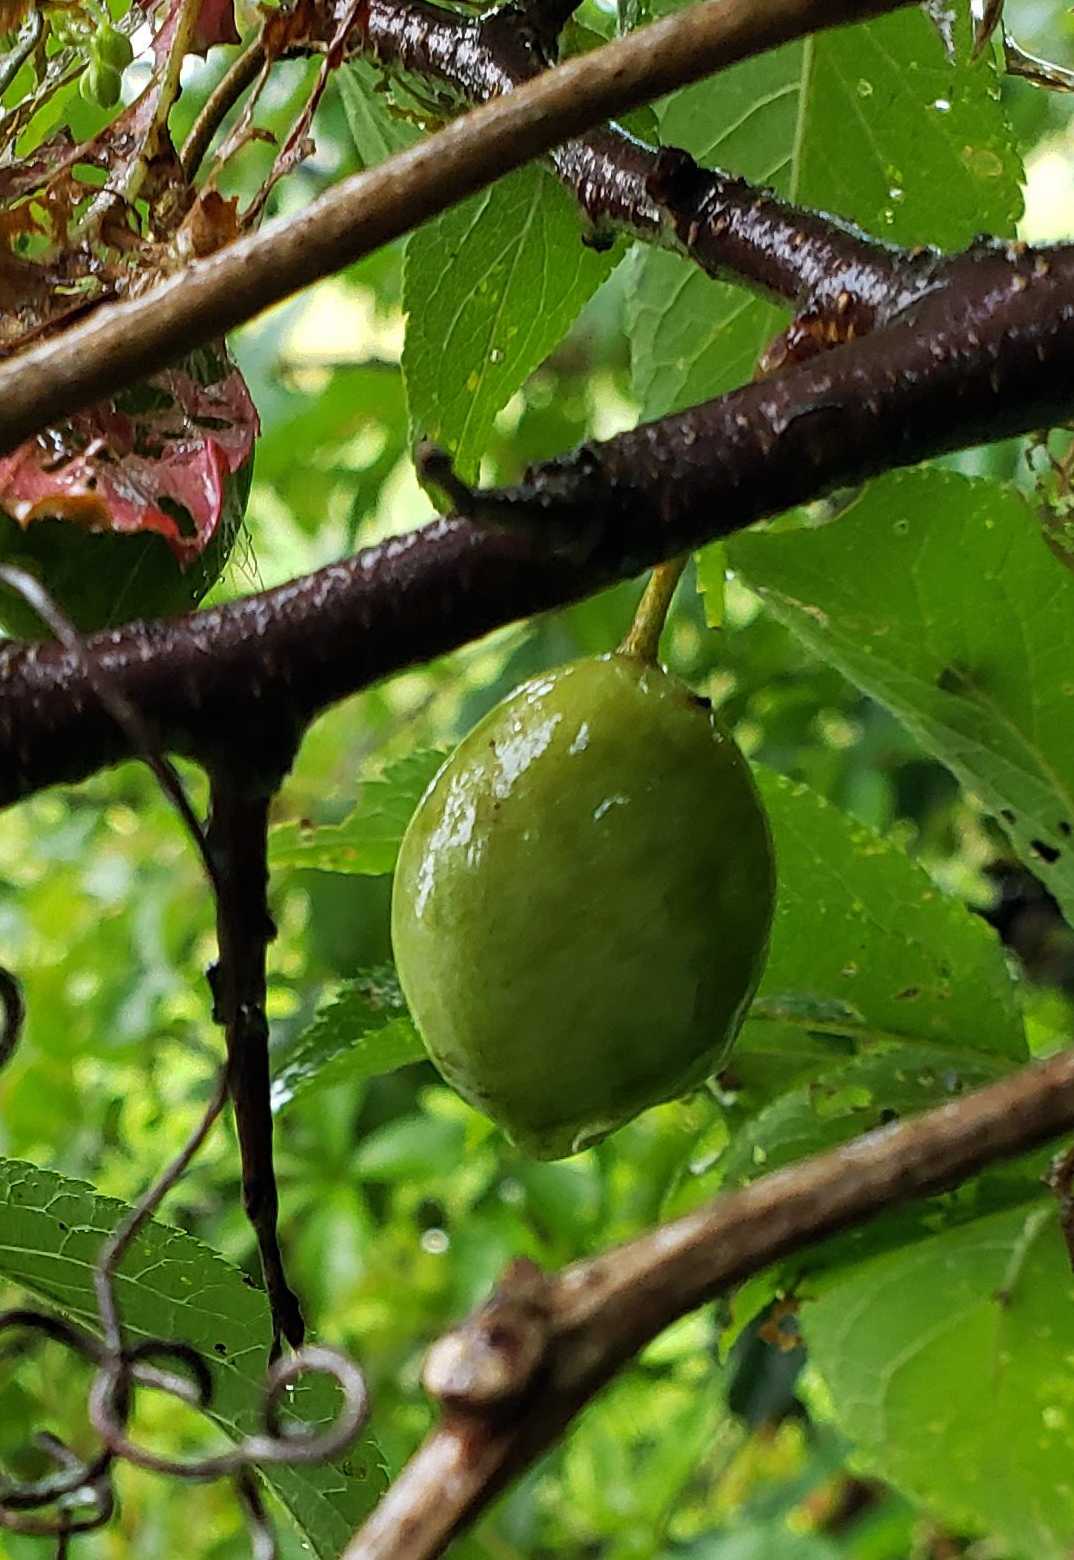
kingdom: Plantae
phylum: Tracheophyta
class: Magnoliopsida
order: Rosales
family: Rosaceae
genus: Prunus
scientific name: Prunus americana
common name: American plum
